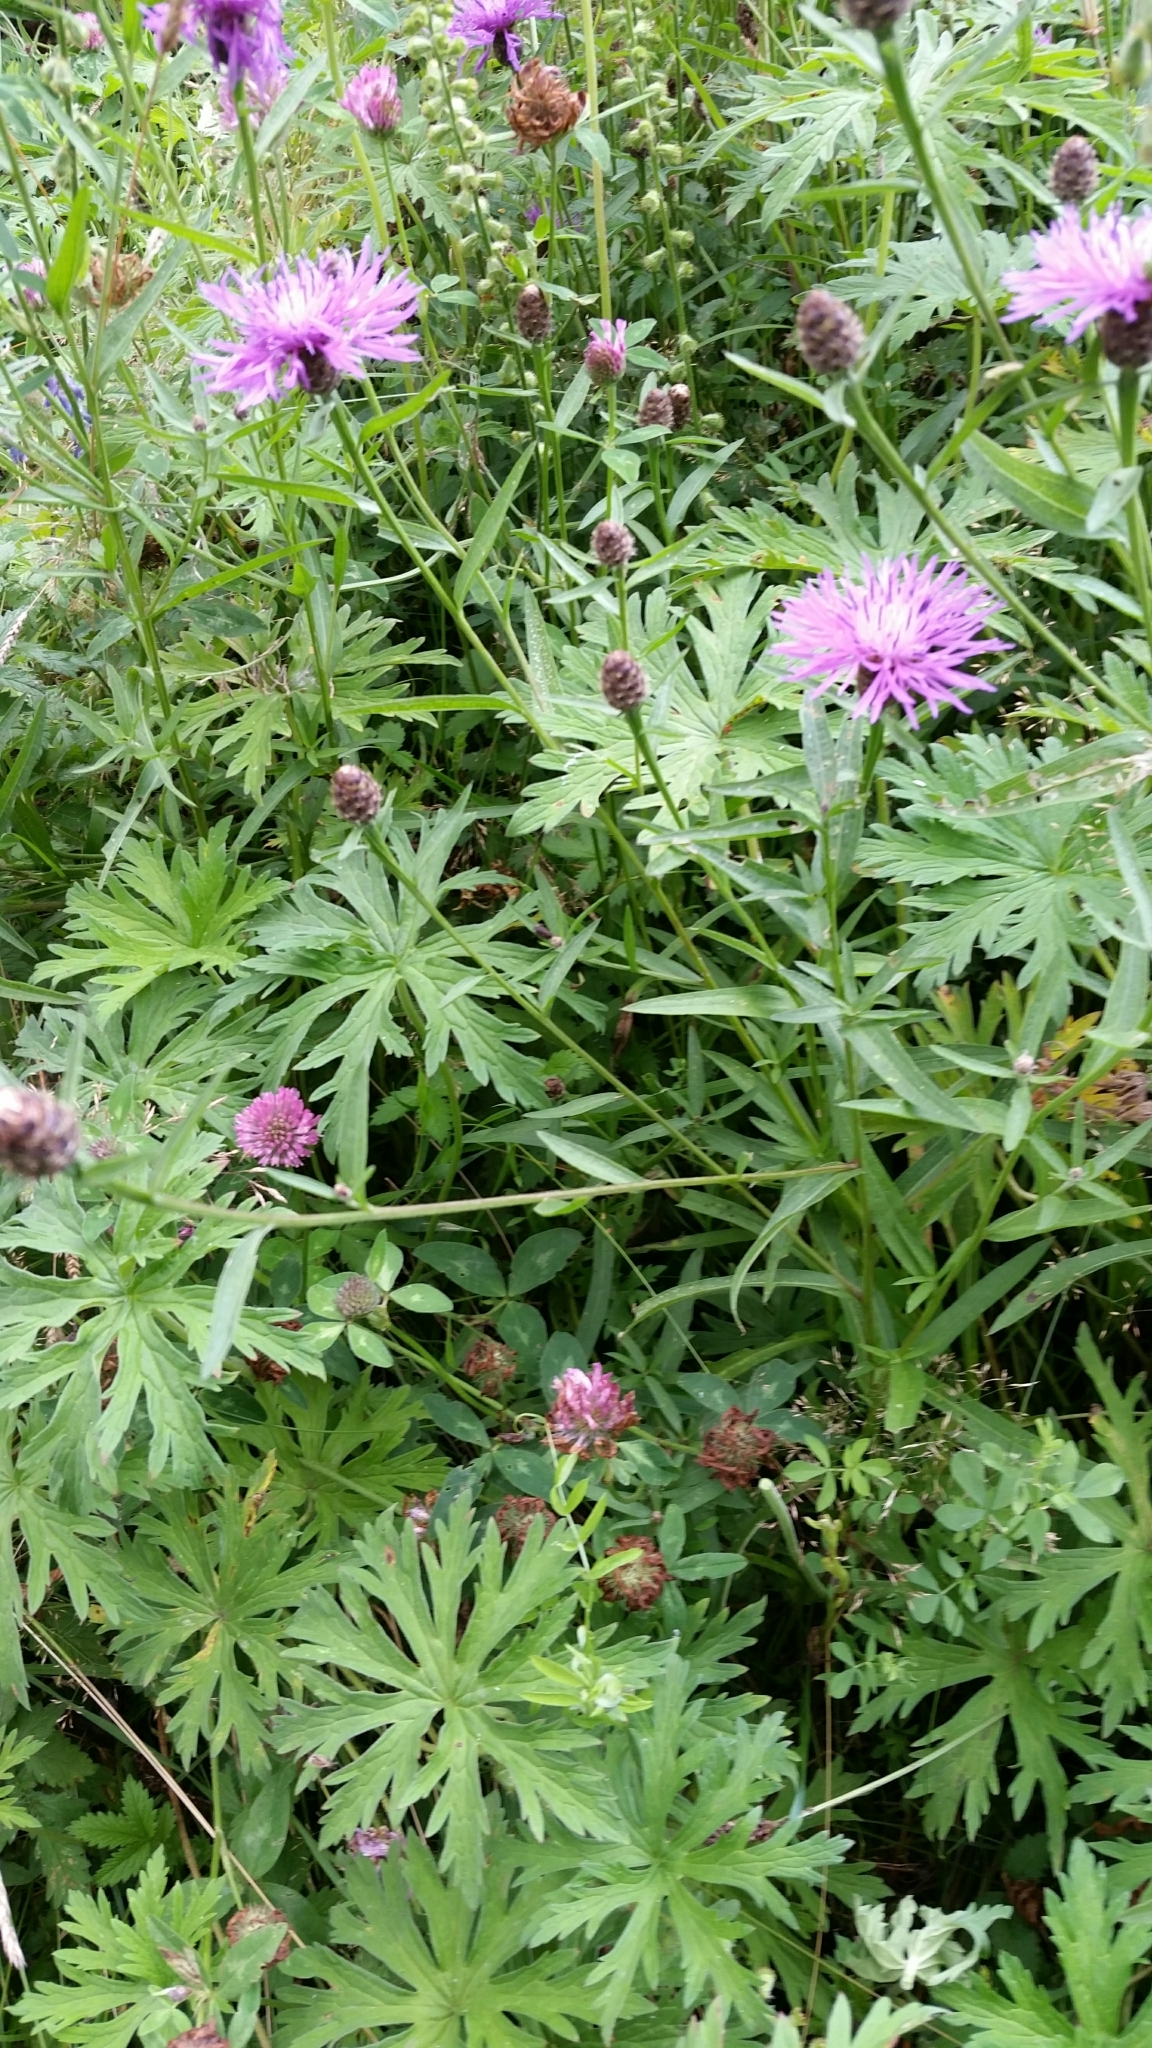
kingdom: Plantae
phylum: Tracheophyta
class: Magnoliopsida
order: Asterales
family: Asteraceae
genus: Centaurea
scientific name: Centaurea scabiosa
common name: Greater knapweed
